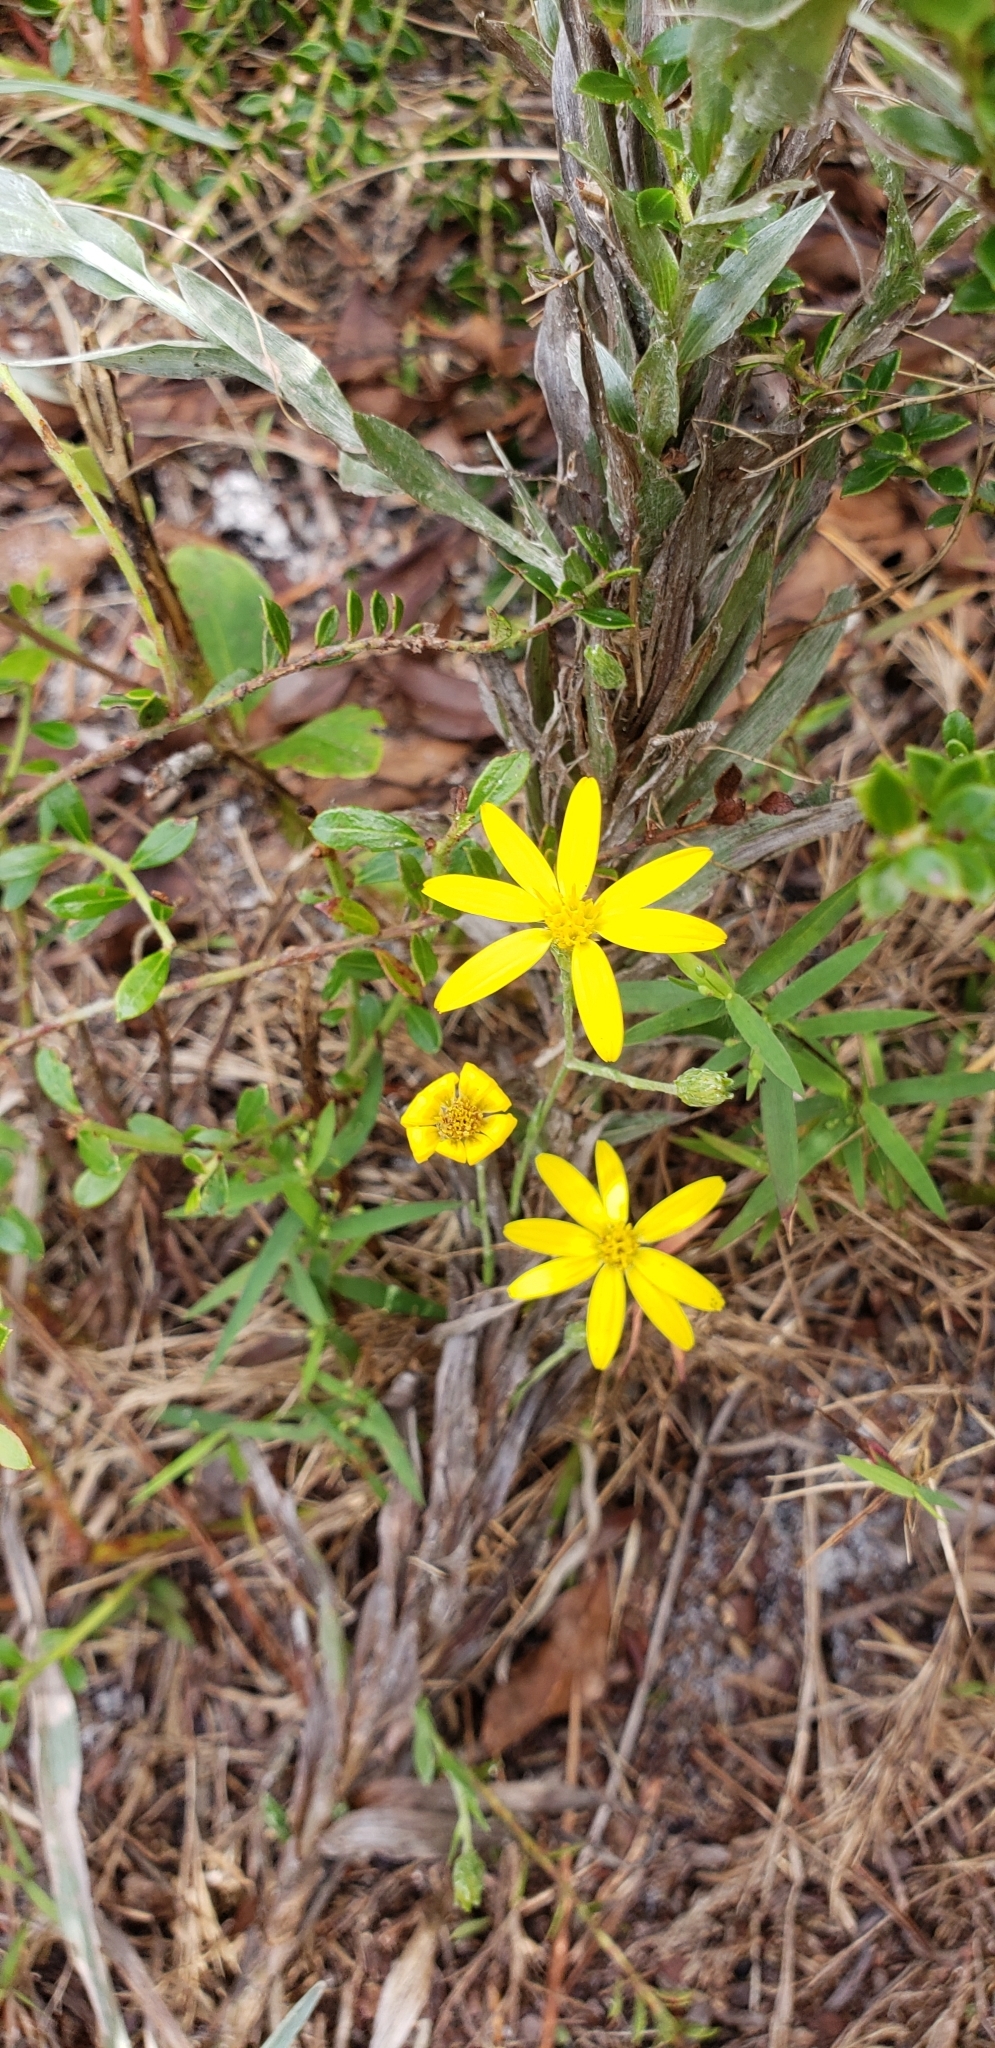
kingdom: Plantae
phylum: Tracheophyta
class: Magnoliopsida
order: Asterales
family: Asteraceae
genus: Pityopsis
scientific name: Pityopsis graminifolia
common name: Grass-leaf golden-aster
